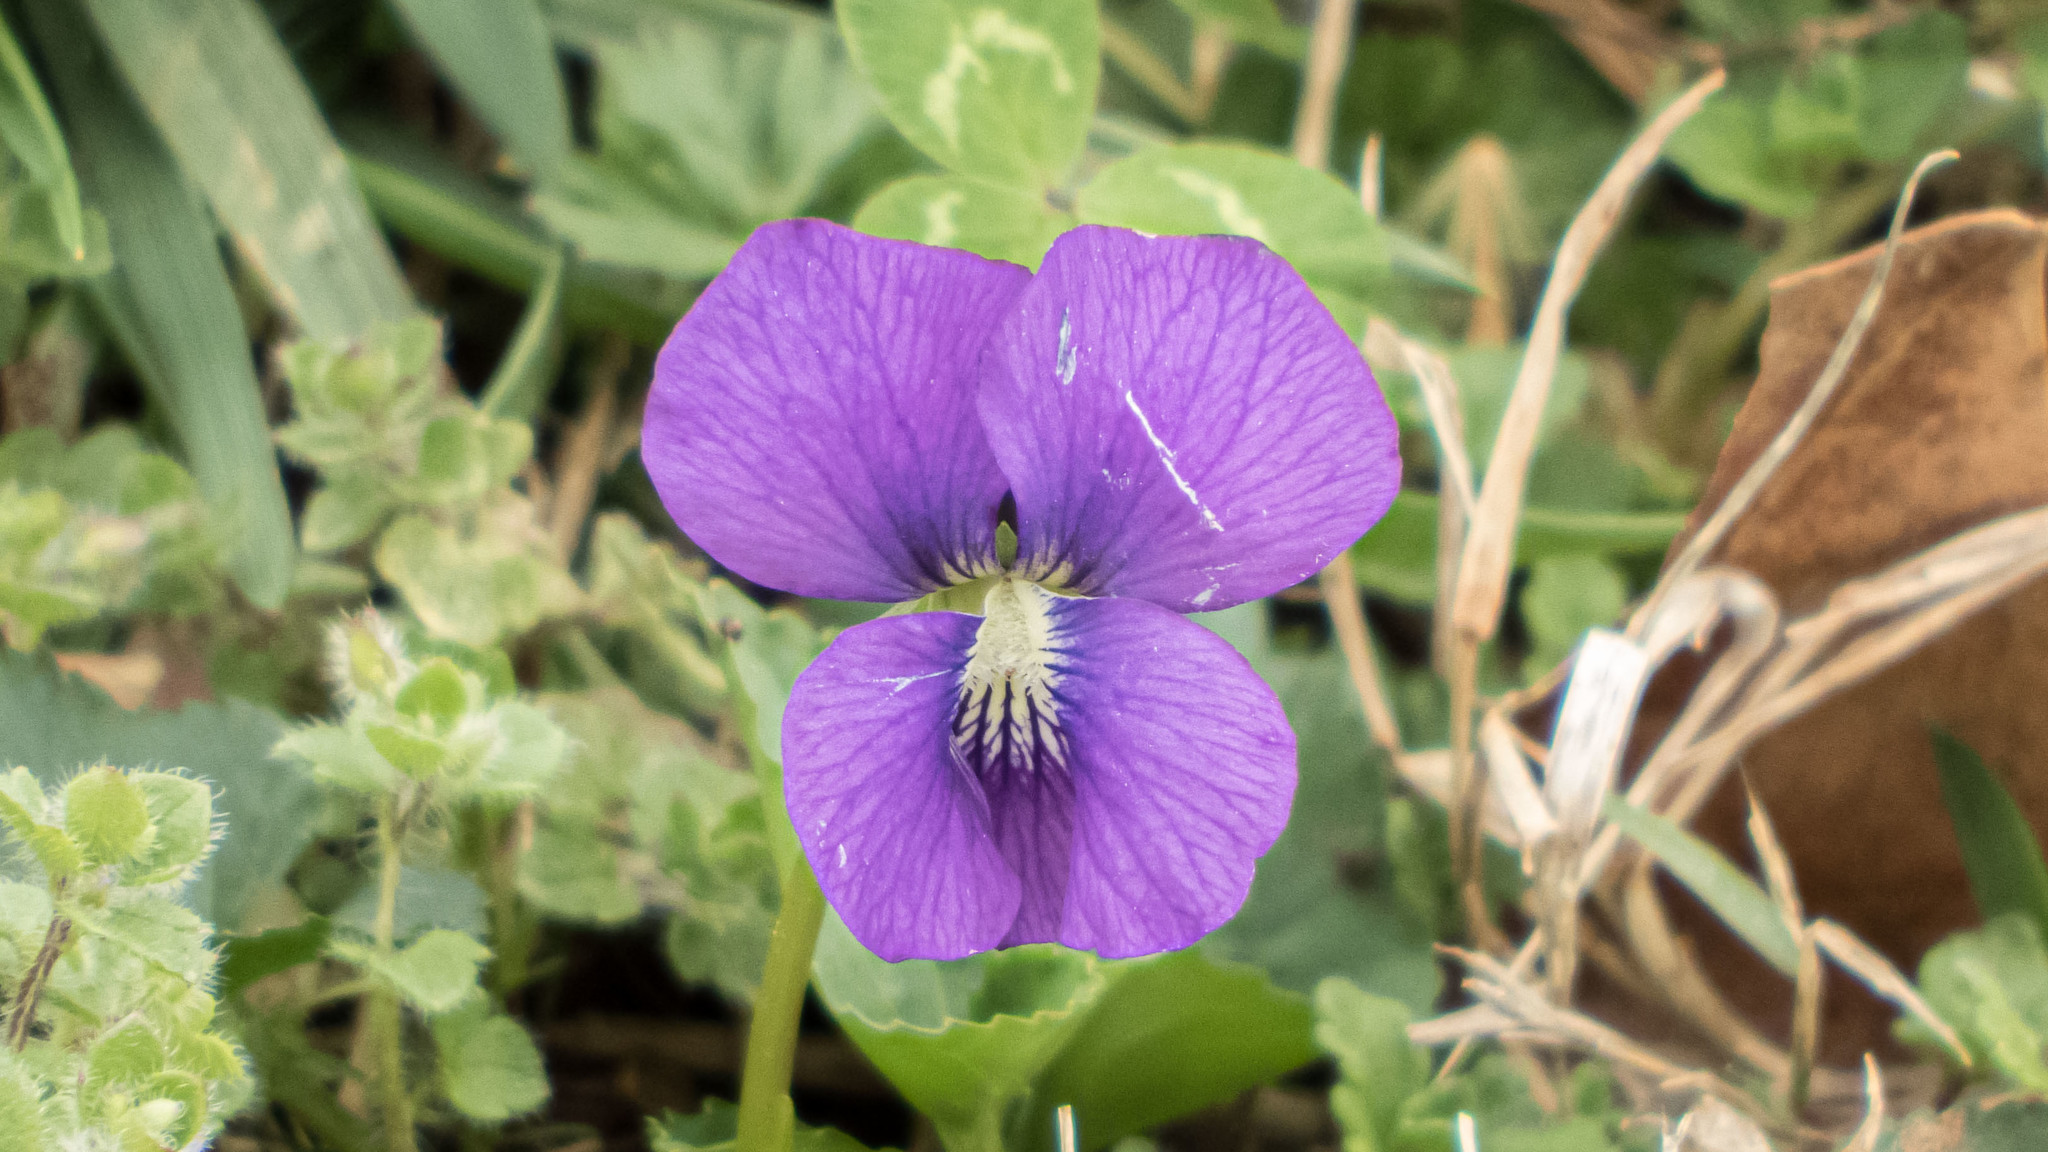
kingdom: Plantae
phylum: Tracheophyta
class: Magnoliopsida
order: Malpighiales
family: Violaceae
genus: Viola
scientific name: Viola sororia
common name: Dooryard violet
